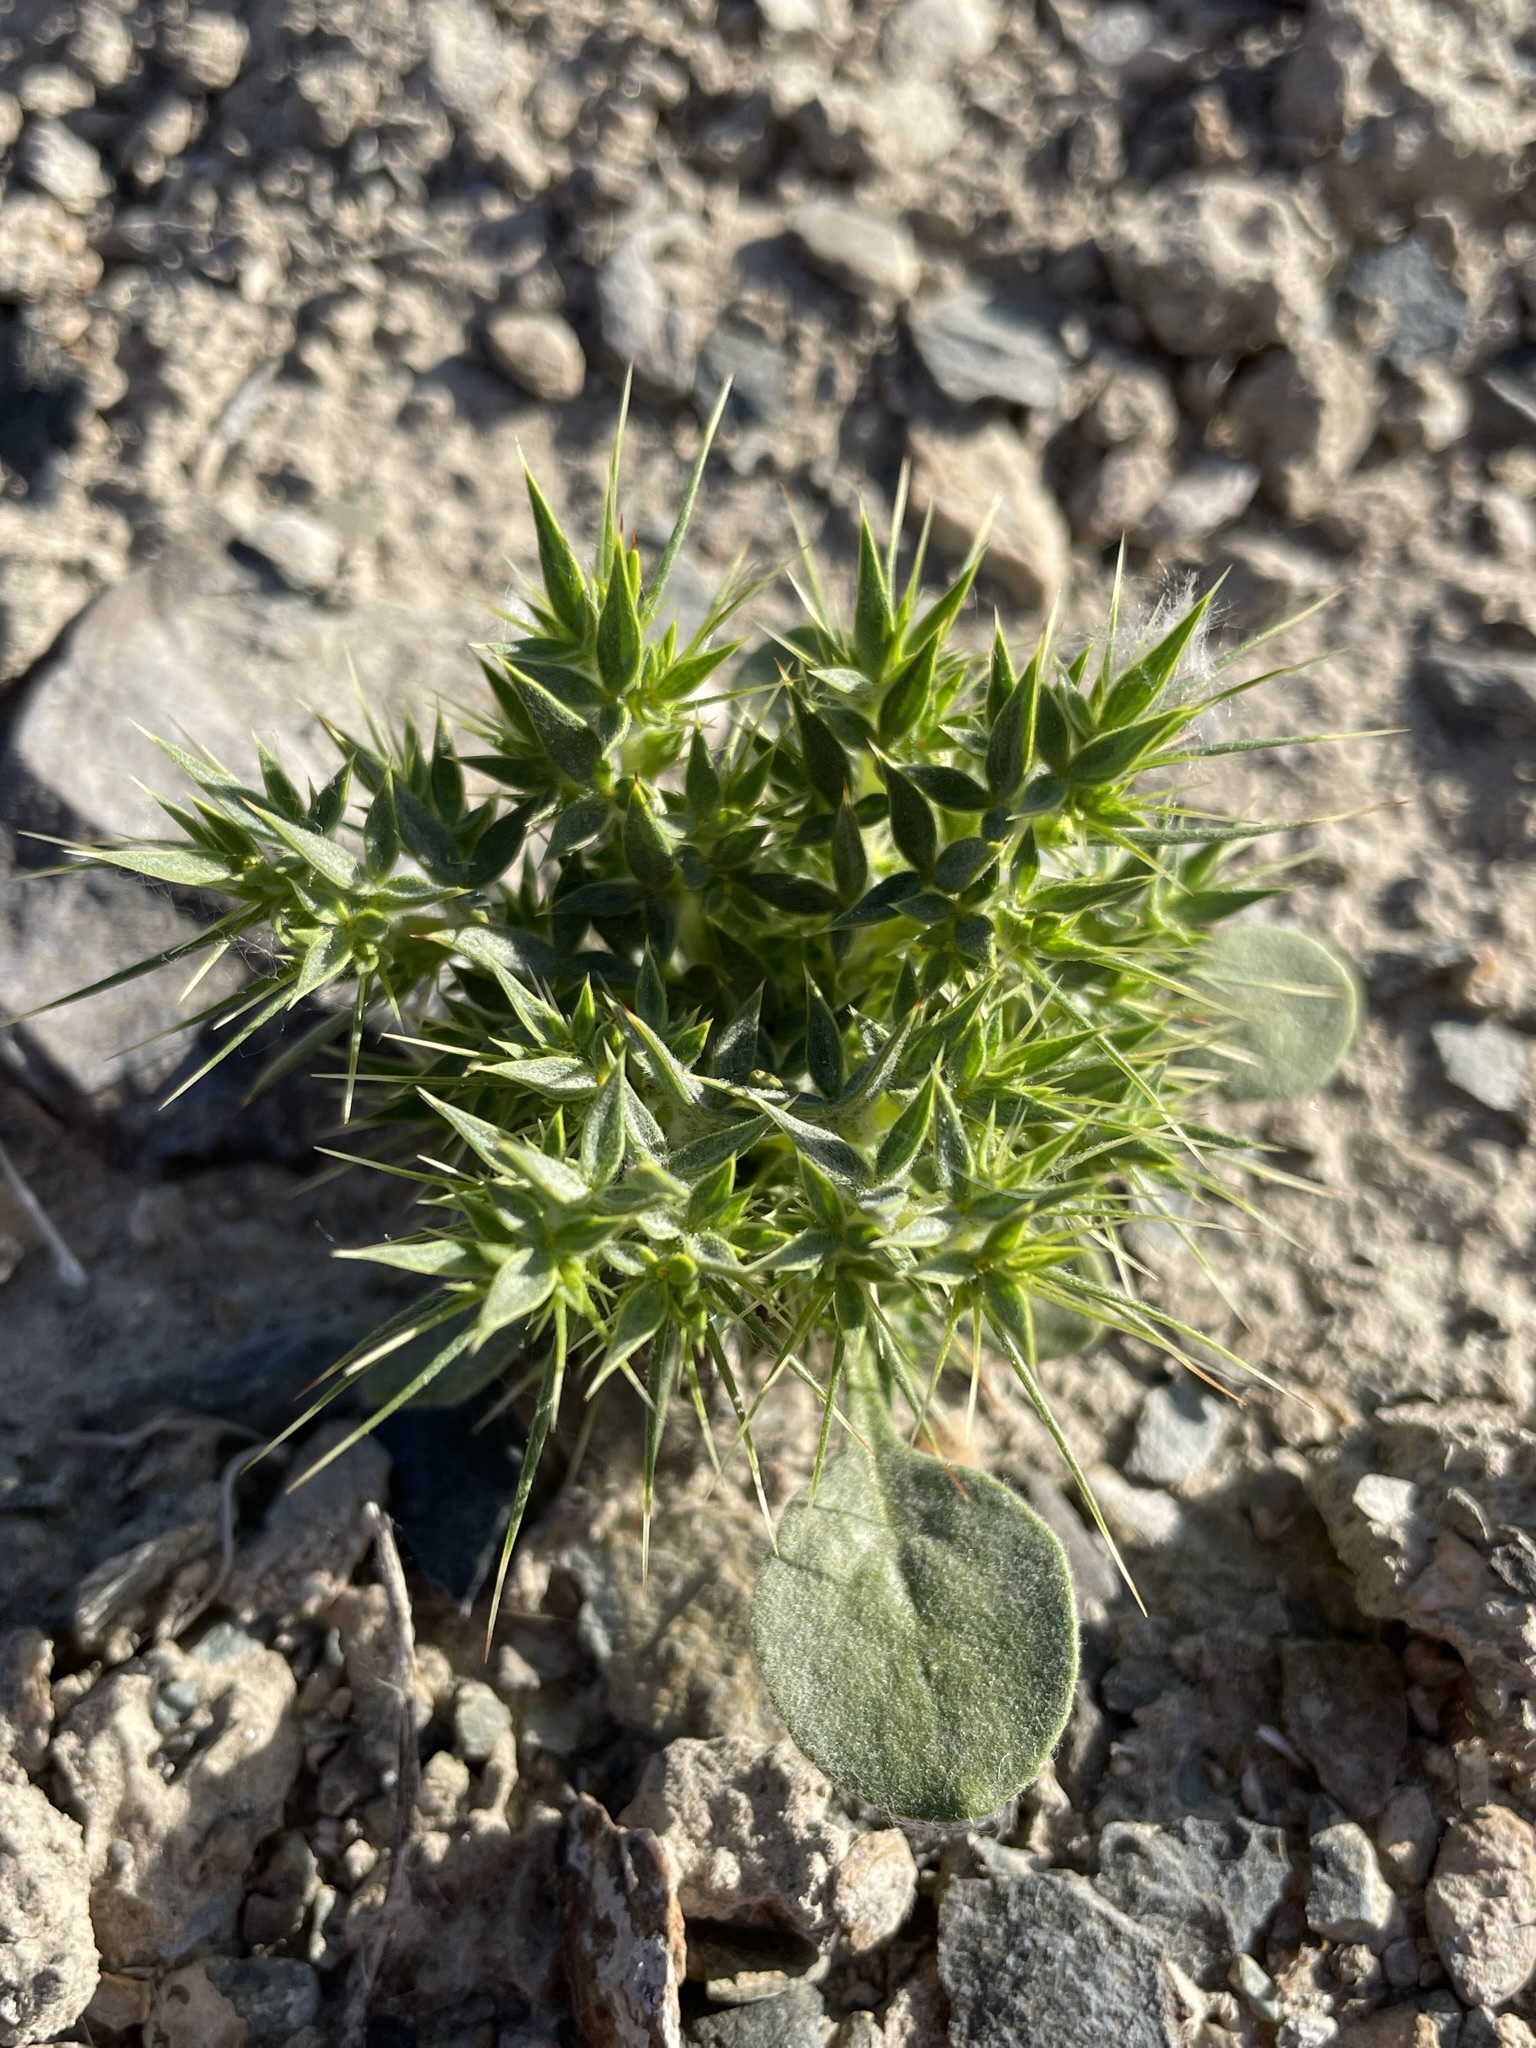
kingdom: Plantae
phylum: Tracheophyta
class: Magnoliopsida
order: Caryophyllales
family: Polygonaceae
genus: Chorizanthe
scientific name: Chorizanthe rigida
